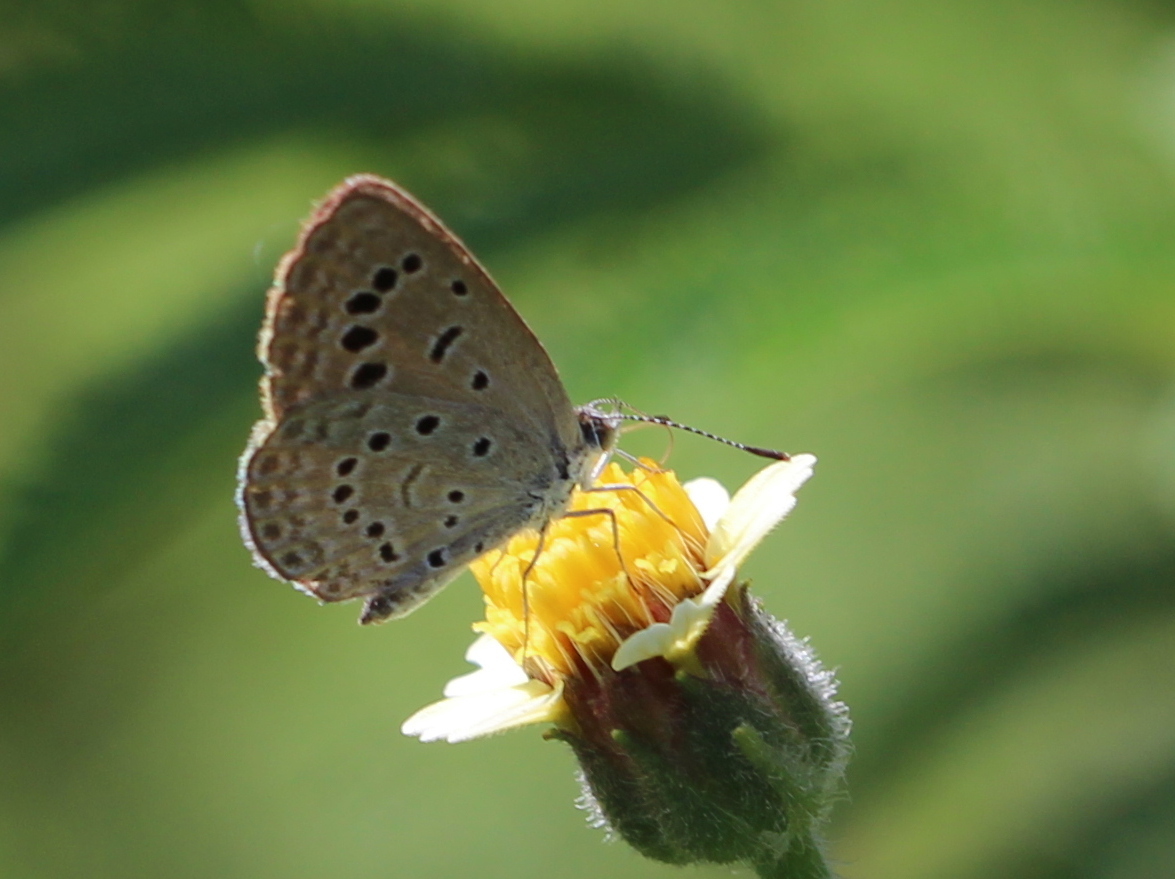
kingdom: Animalia
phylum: Arthropoda
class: Insecta
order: Lepidoptera
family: Lycaenidae
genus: Zizeeria
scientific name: Zizeeria karsandra
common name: Dark grass blue
